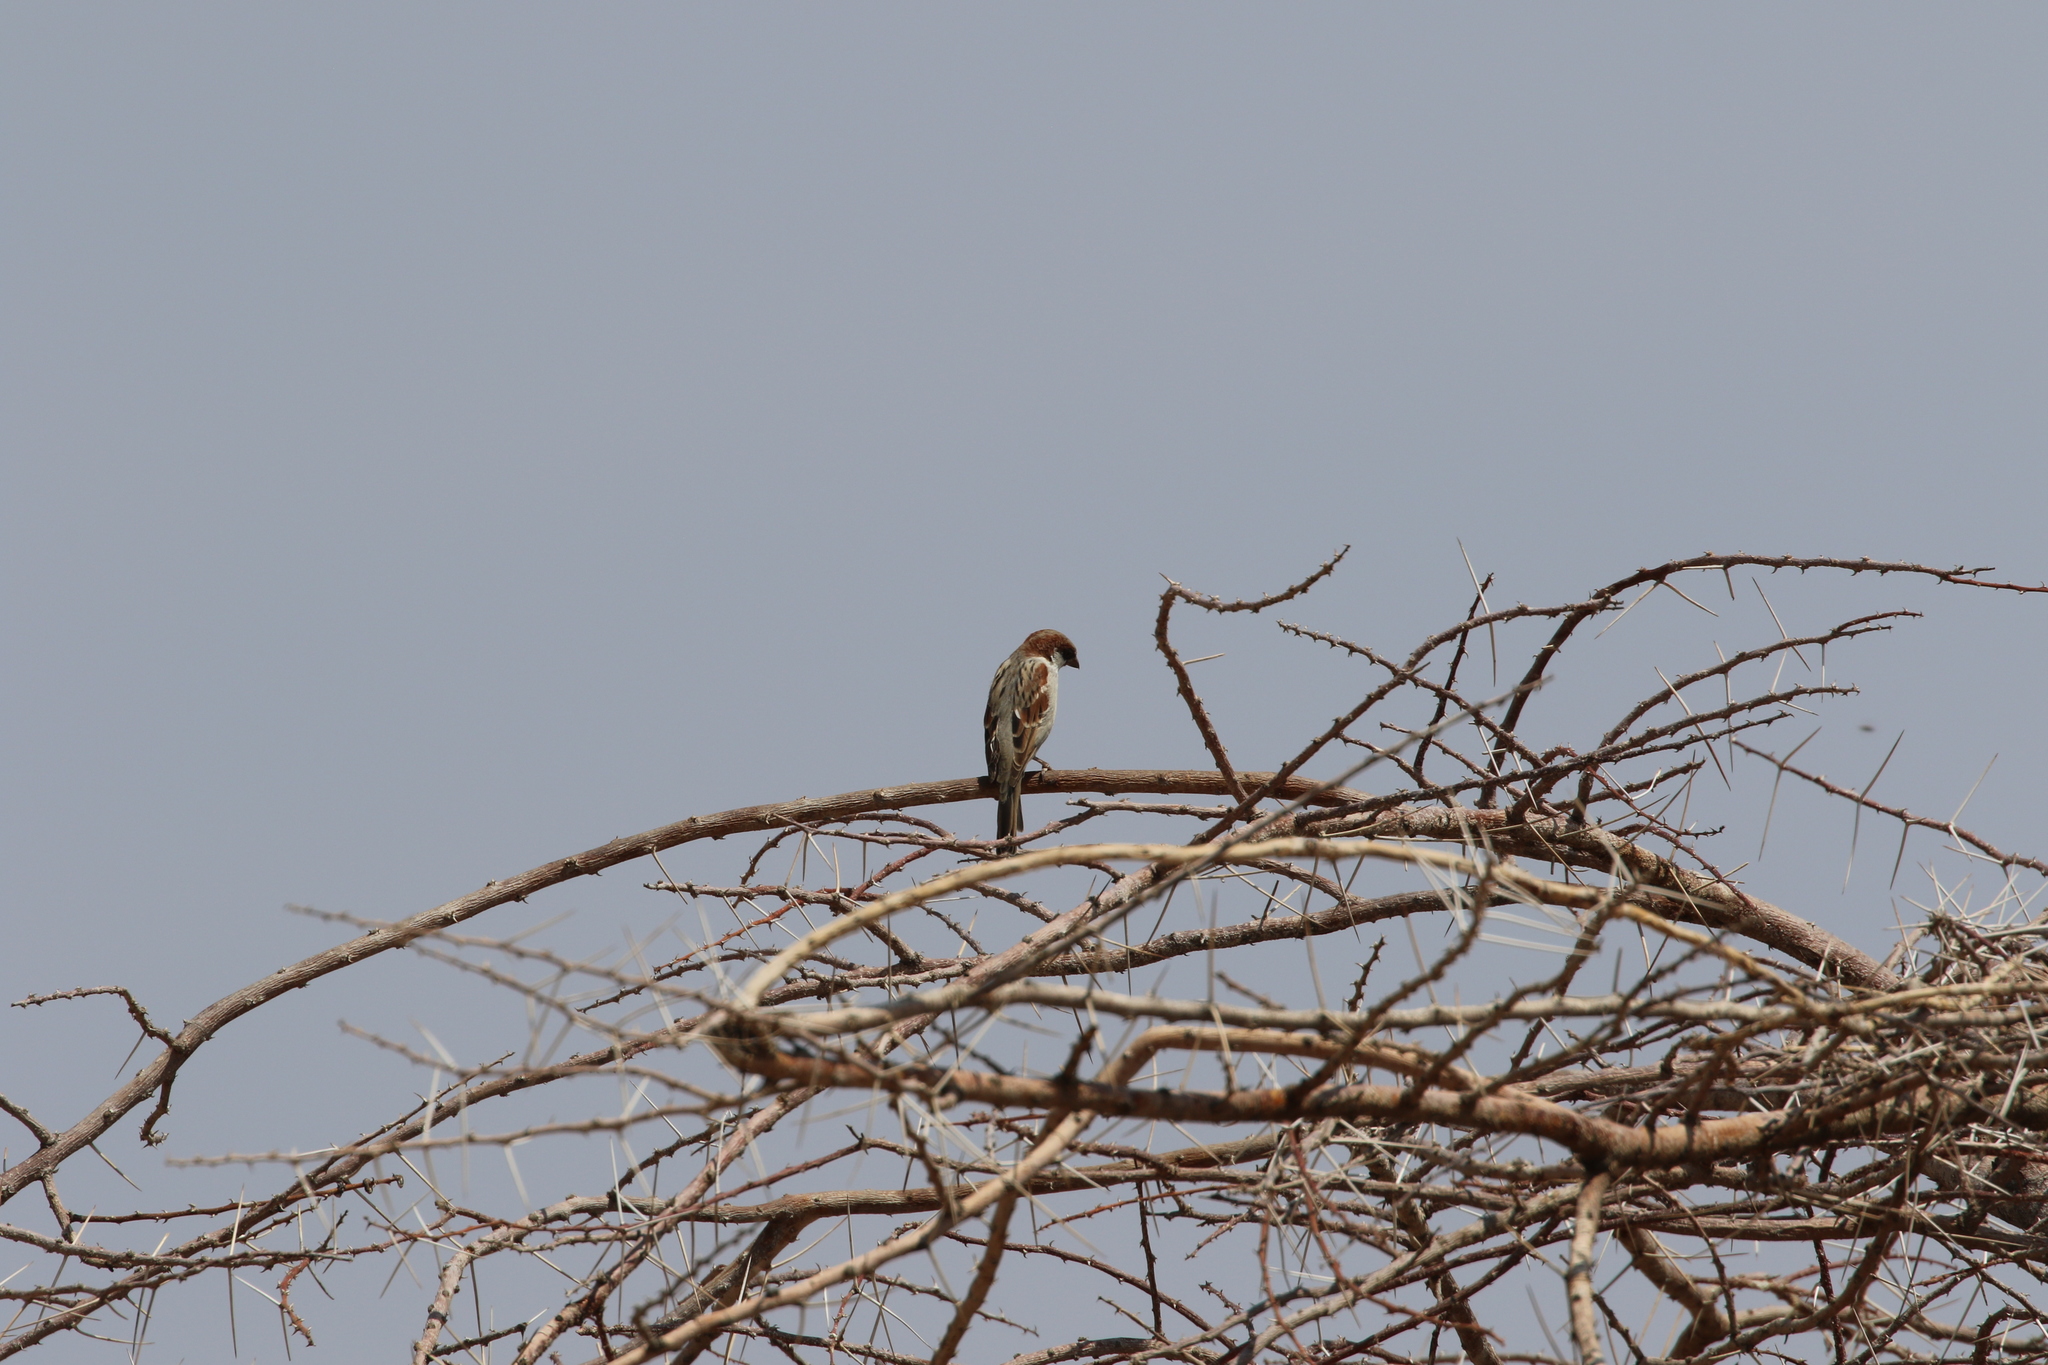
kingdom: Animalia
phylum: Chordata
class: Aves
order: Passeriformes
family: Passeridae
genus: Passer
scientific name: Passer domesticus
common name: House sparrow
